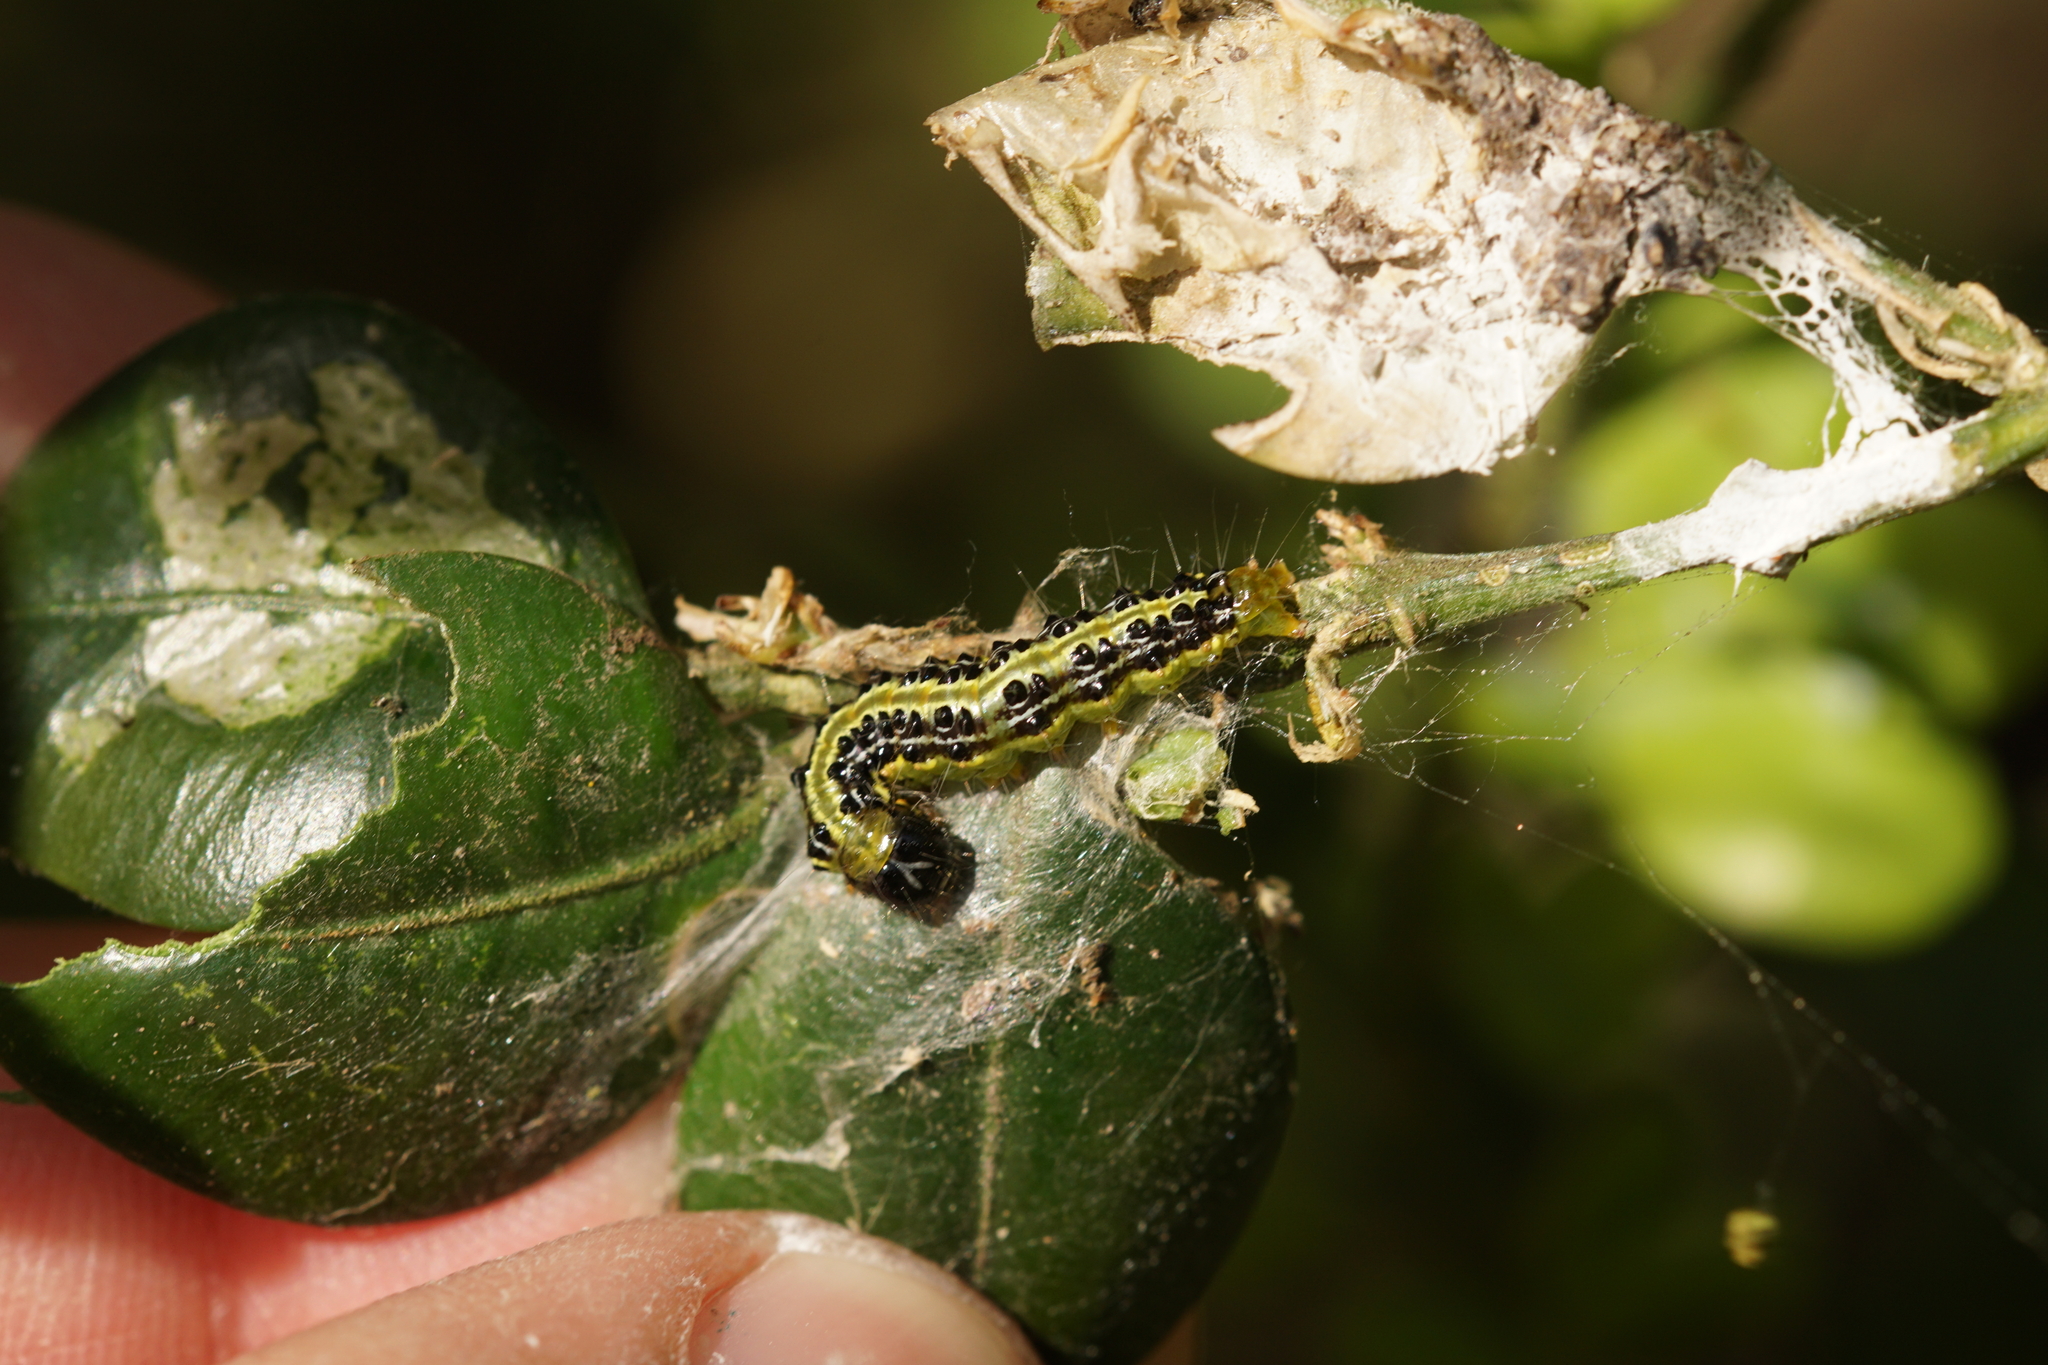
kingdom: Animalia
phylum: Arthropoda
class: Insecta
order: Lepidoptera
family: Crambidae
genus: Cydalima
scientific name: Cydalima perspectalis
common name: Box tree moth
